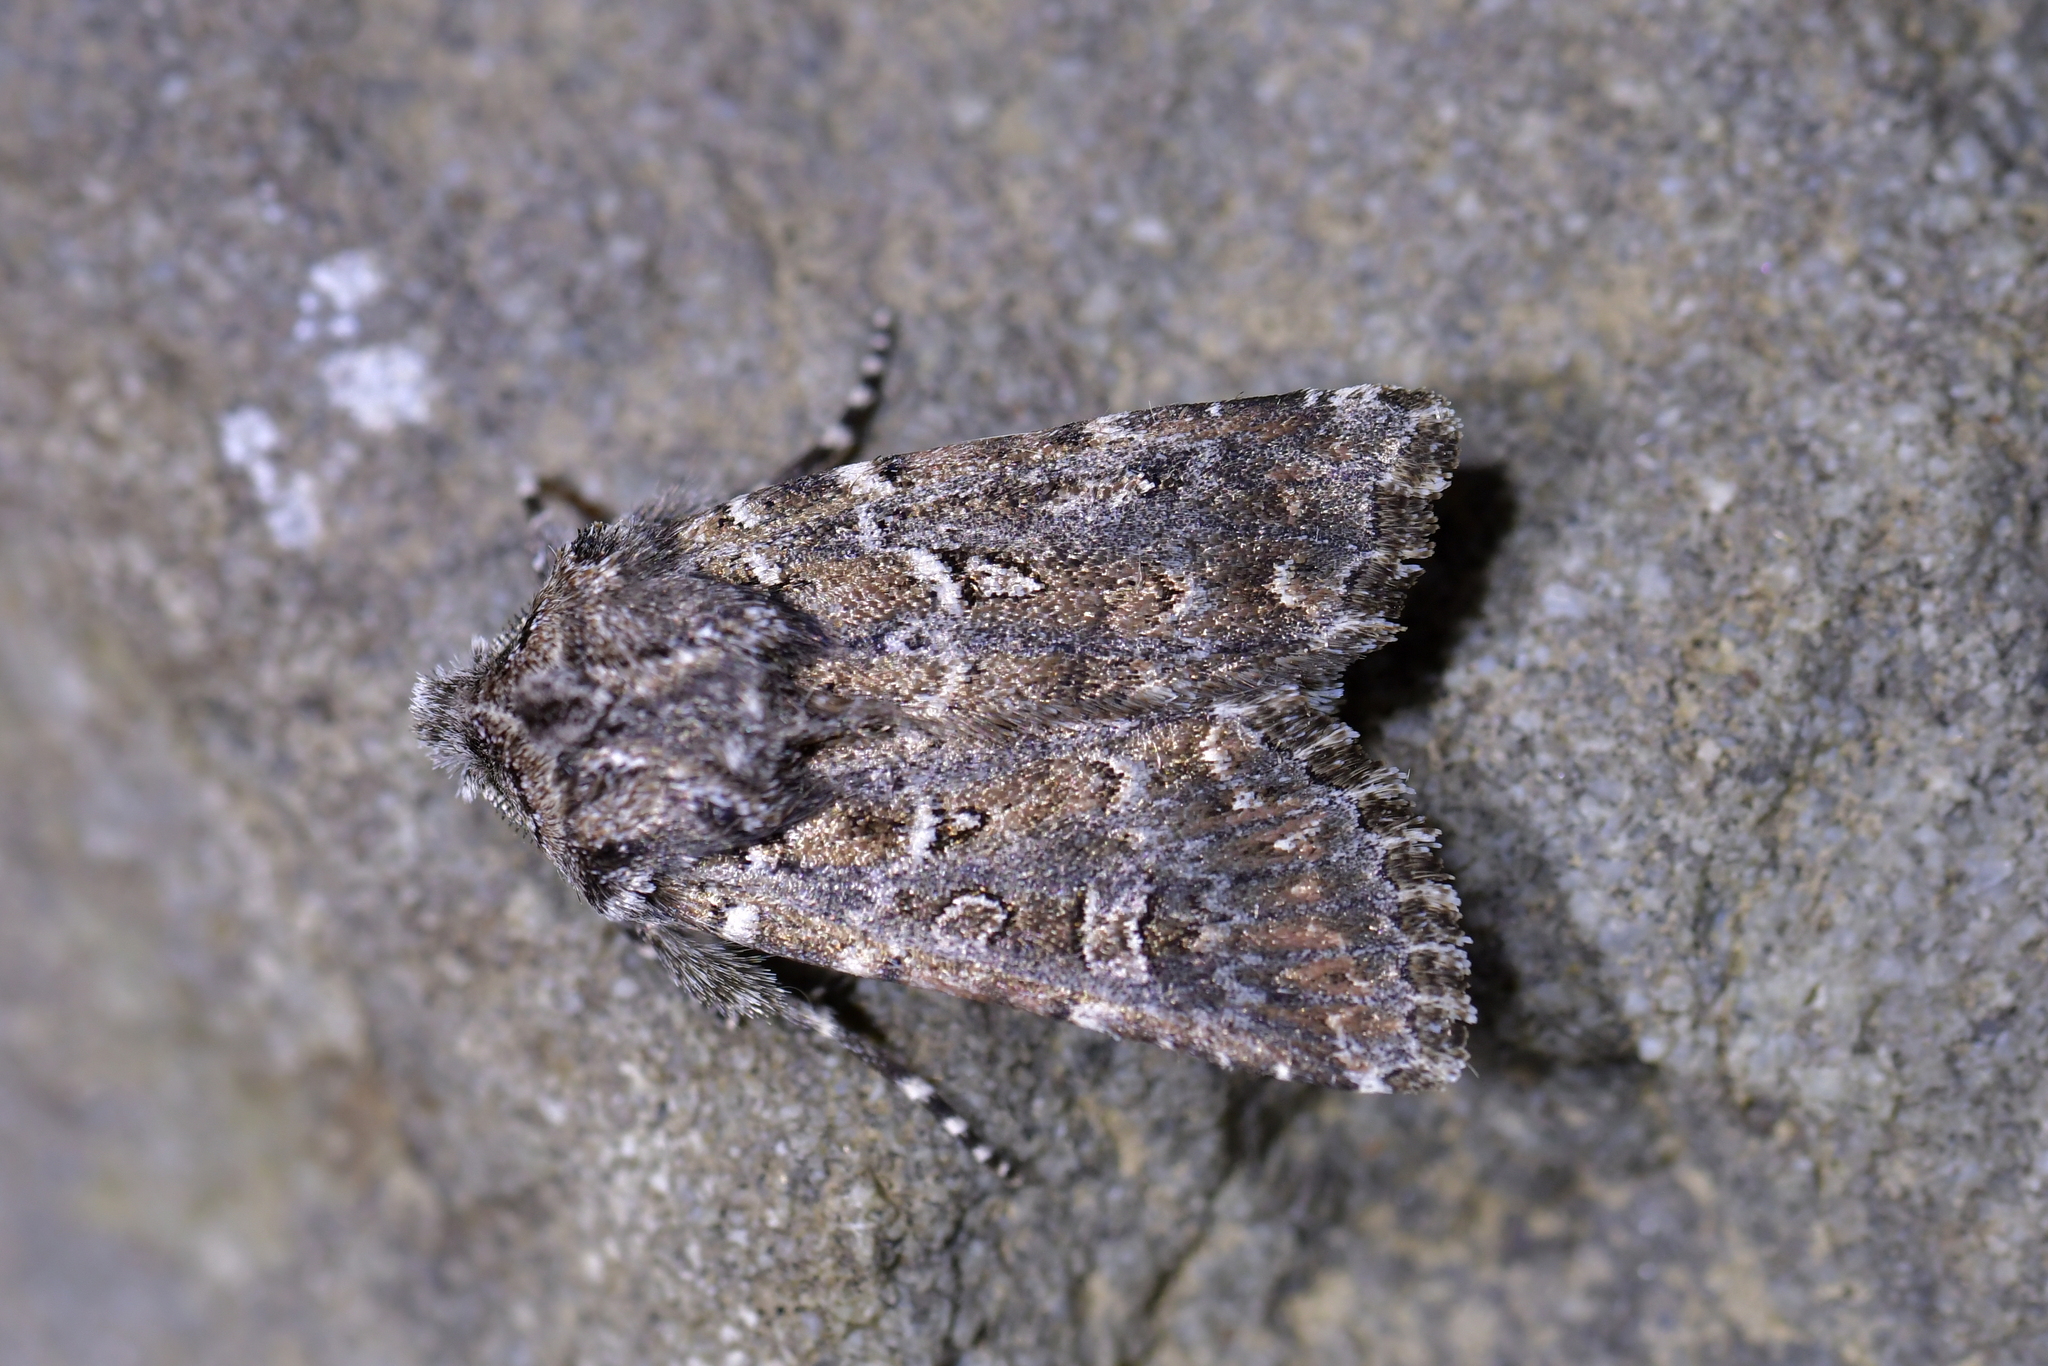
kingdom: Animalia
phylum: Arthropoda
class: Insecta
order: Lepidoptera
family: Noctuidae
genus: Ichneutica
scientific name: Ichneutica lithias
